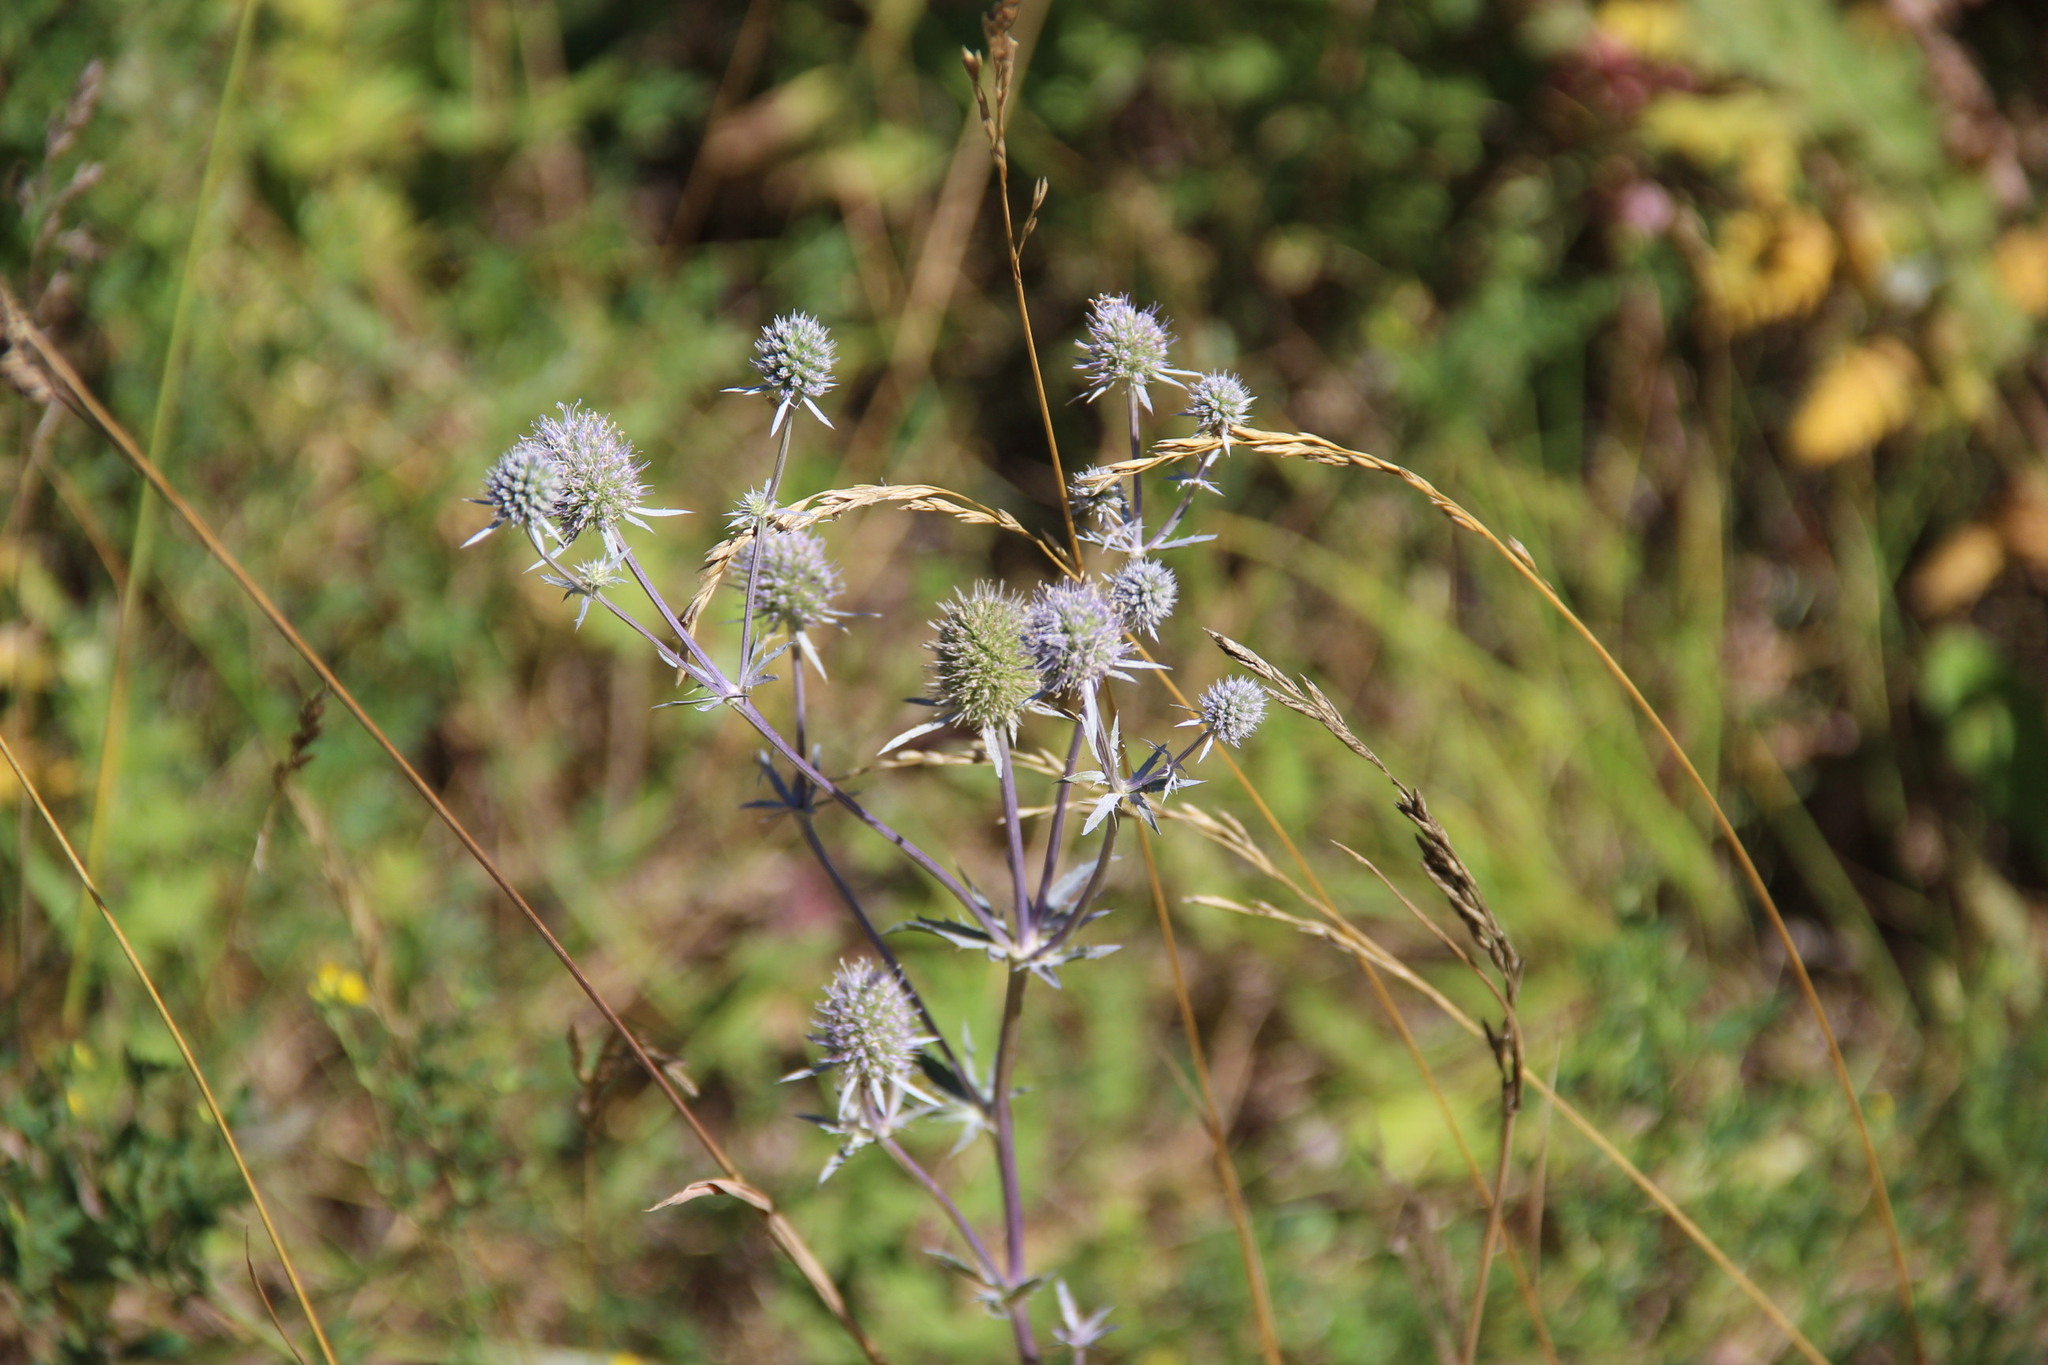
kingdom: Plantae
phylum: Tracheophyta
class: Magnoliopsida
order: Apiales
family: Apiaceae
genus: Eryngium
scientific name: Eryngium planum
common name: Blue eryngo
